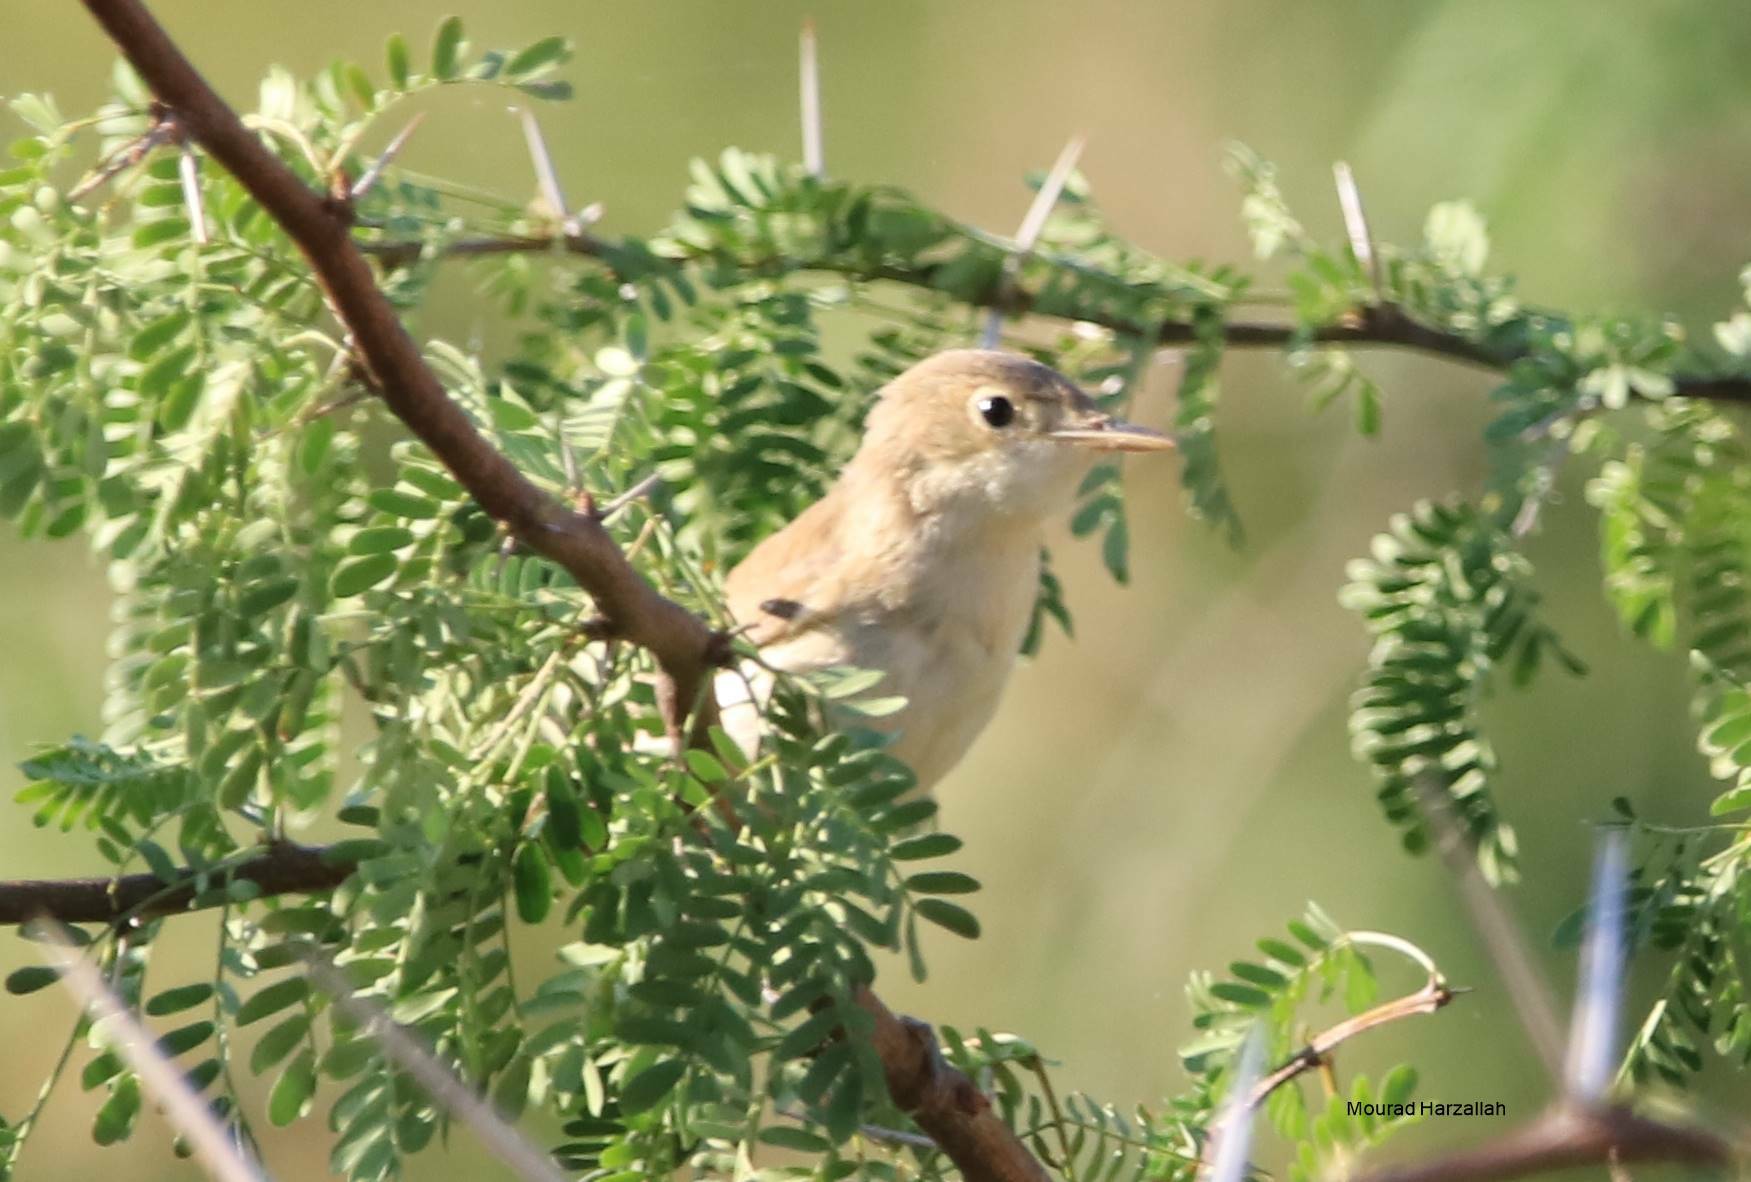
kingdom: Animalia
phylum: Chordata
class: Aves
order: Passeriformes
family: Acrocephalidae
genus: Acrocephalus
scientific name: Acrocephalus scirpaceus
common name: Eurasian reed warbler
